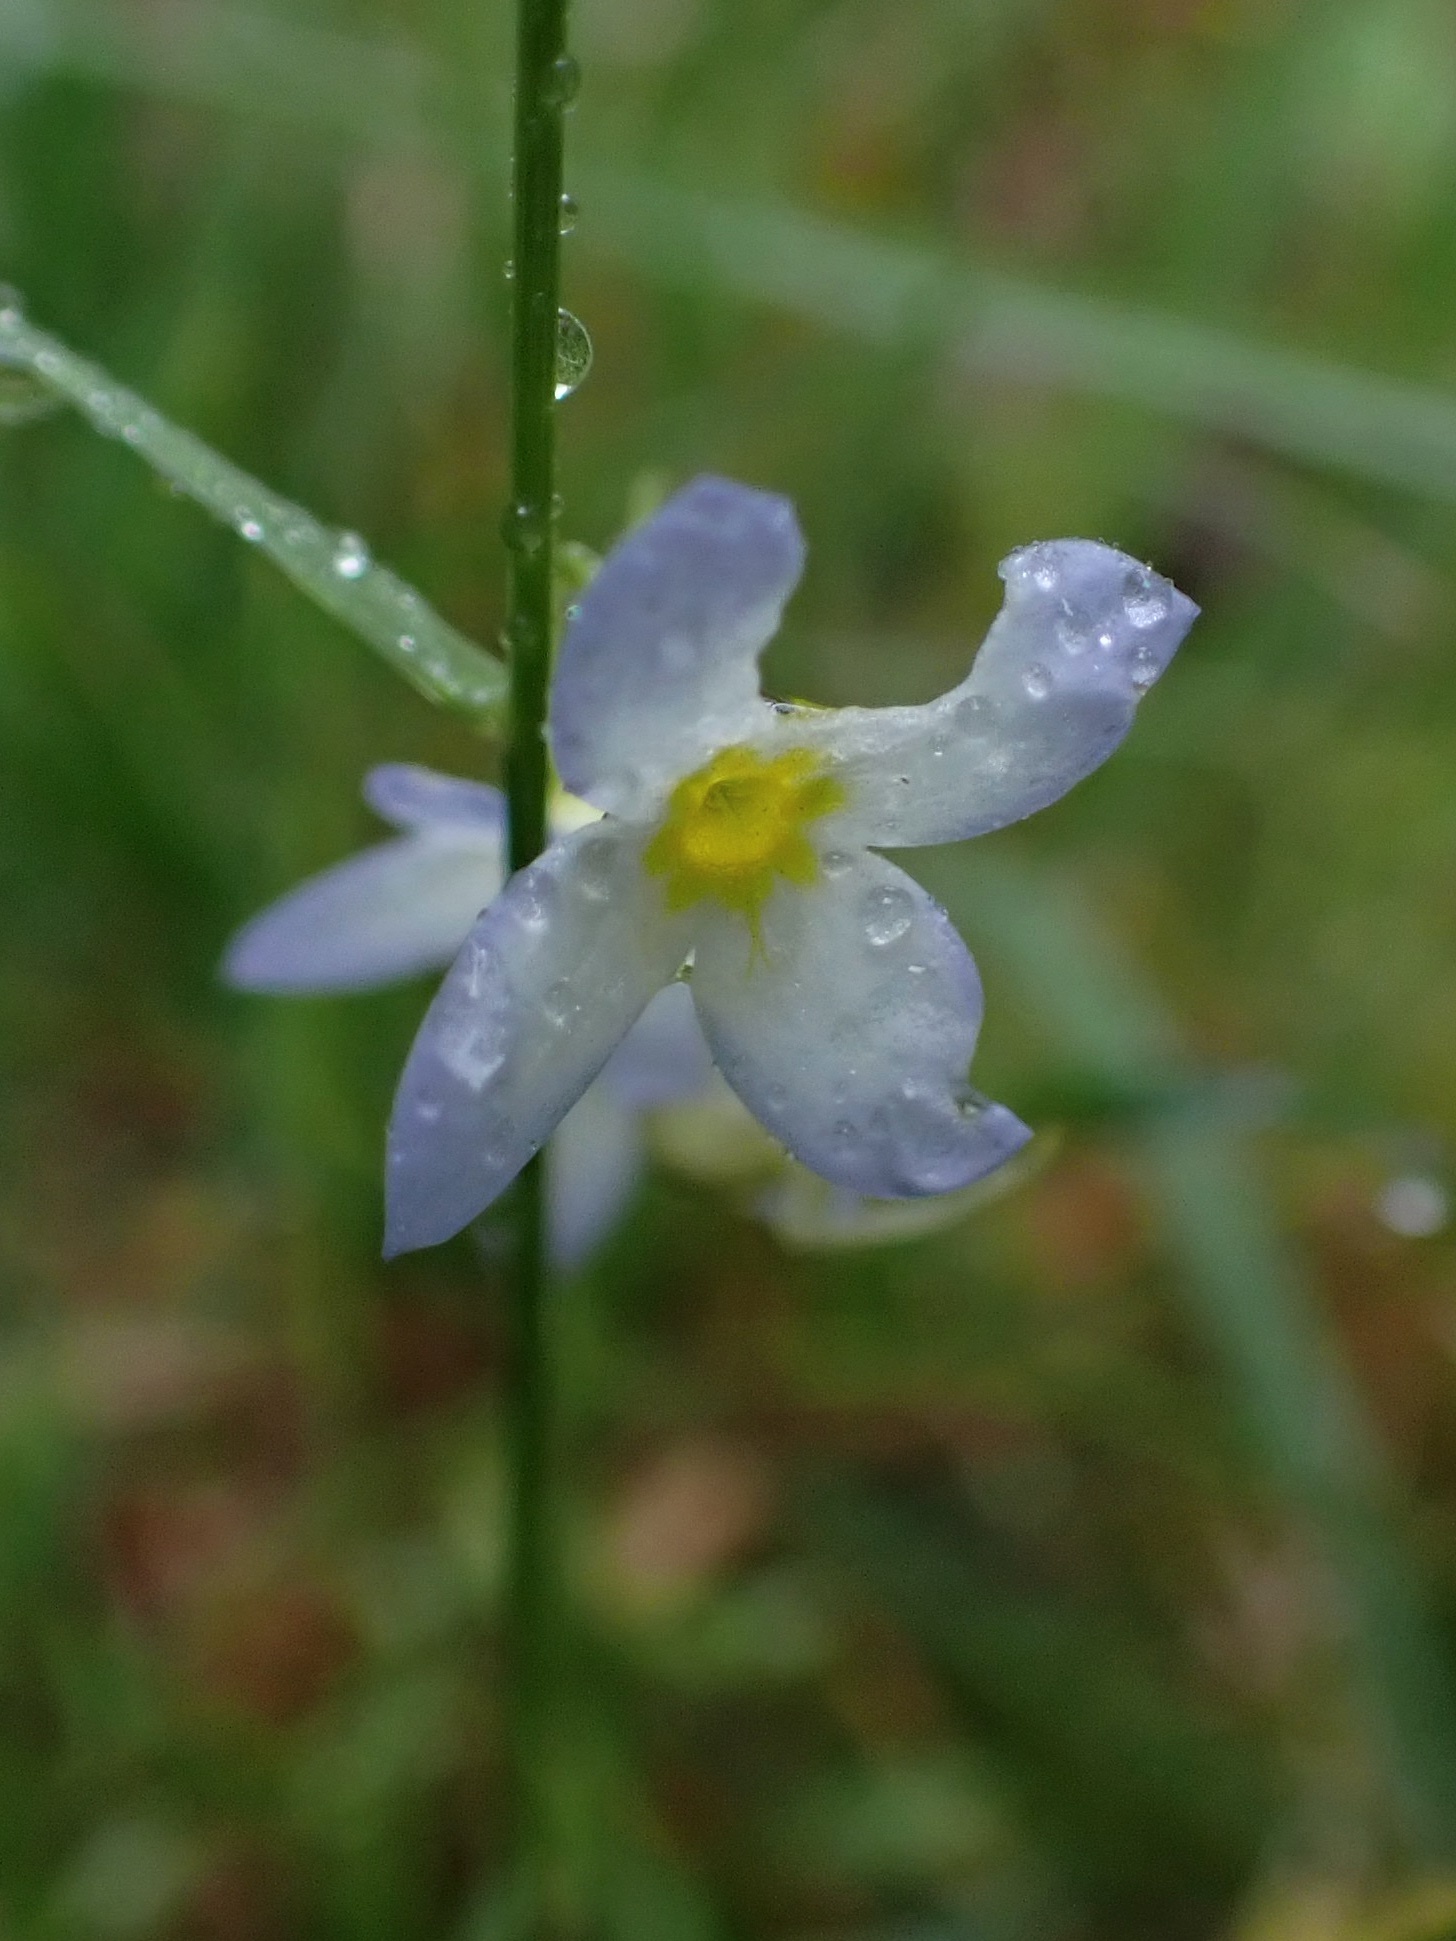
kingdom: Plantae
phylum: Tracheophyta
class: Magnoliopsida
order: Gentianales
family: Rubiaceae
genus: Houstonia
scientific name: Houstonia caerulea
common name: Bluets
